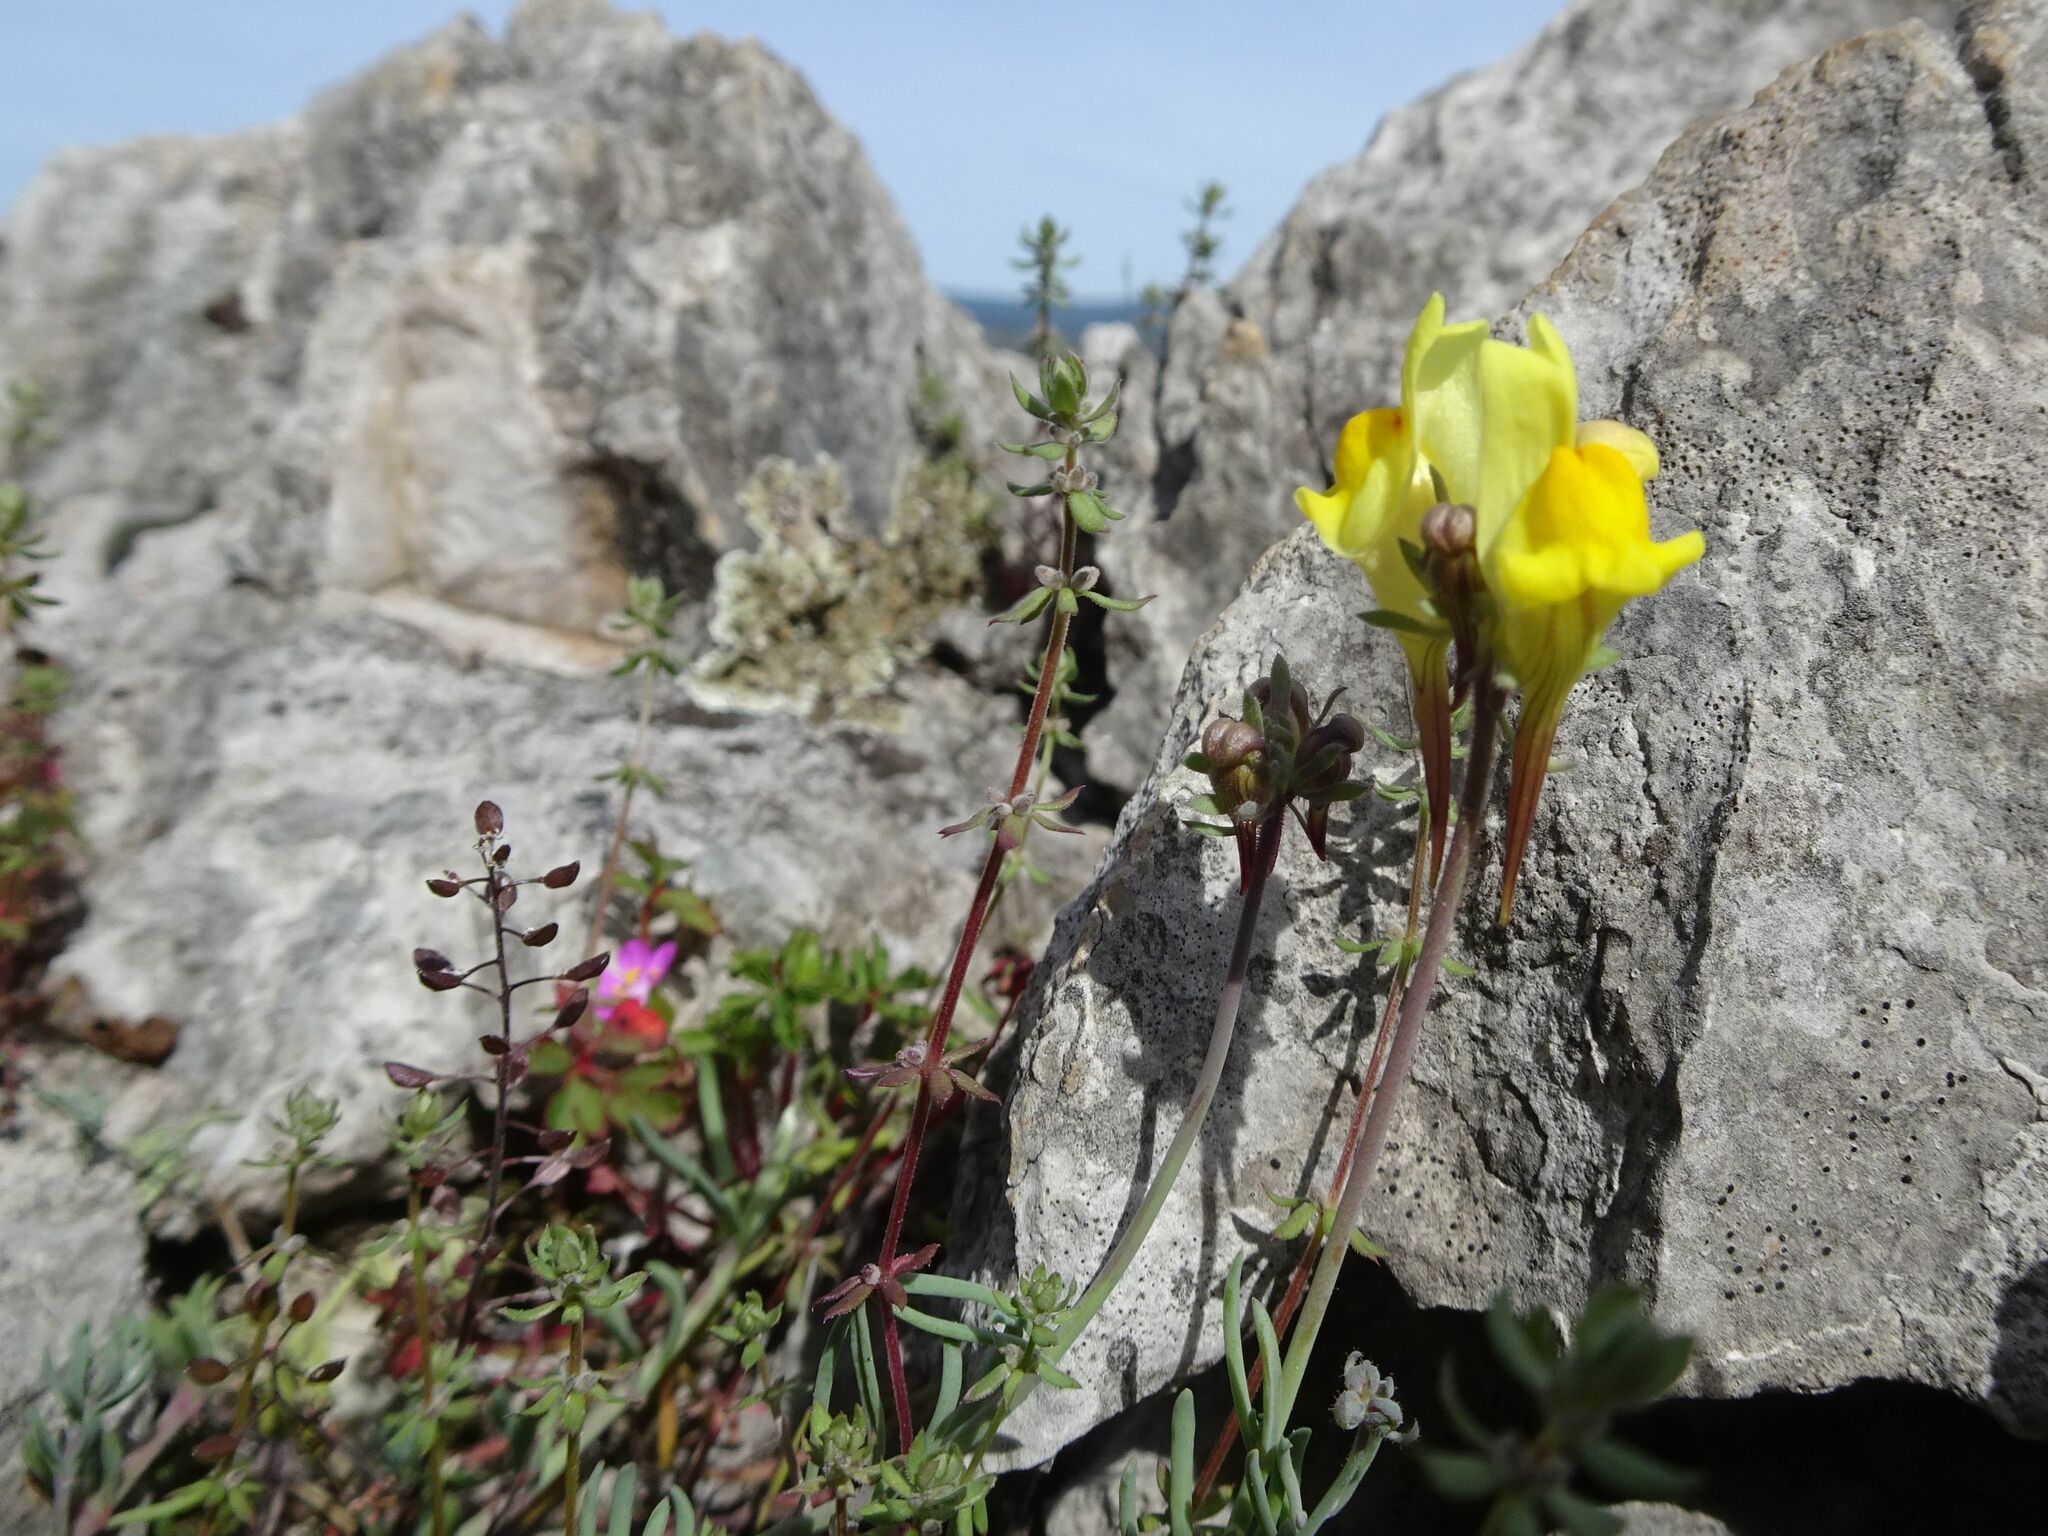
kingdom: Plantae
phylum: Tracheophyta
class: Magnoliopsida
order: Lamiales
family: Plantaginaceae
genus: Linaria
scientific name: Linaria supina
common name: Prostrate toadflax
